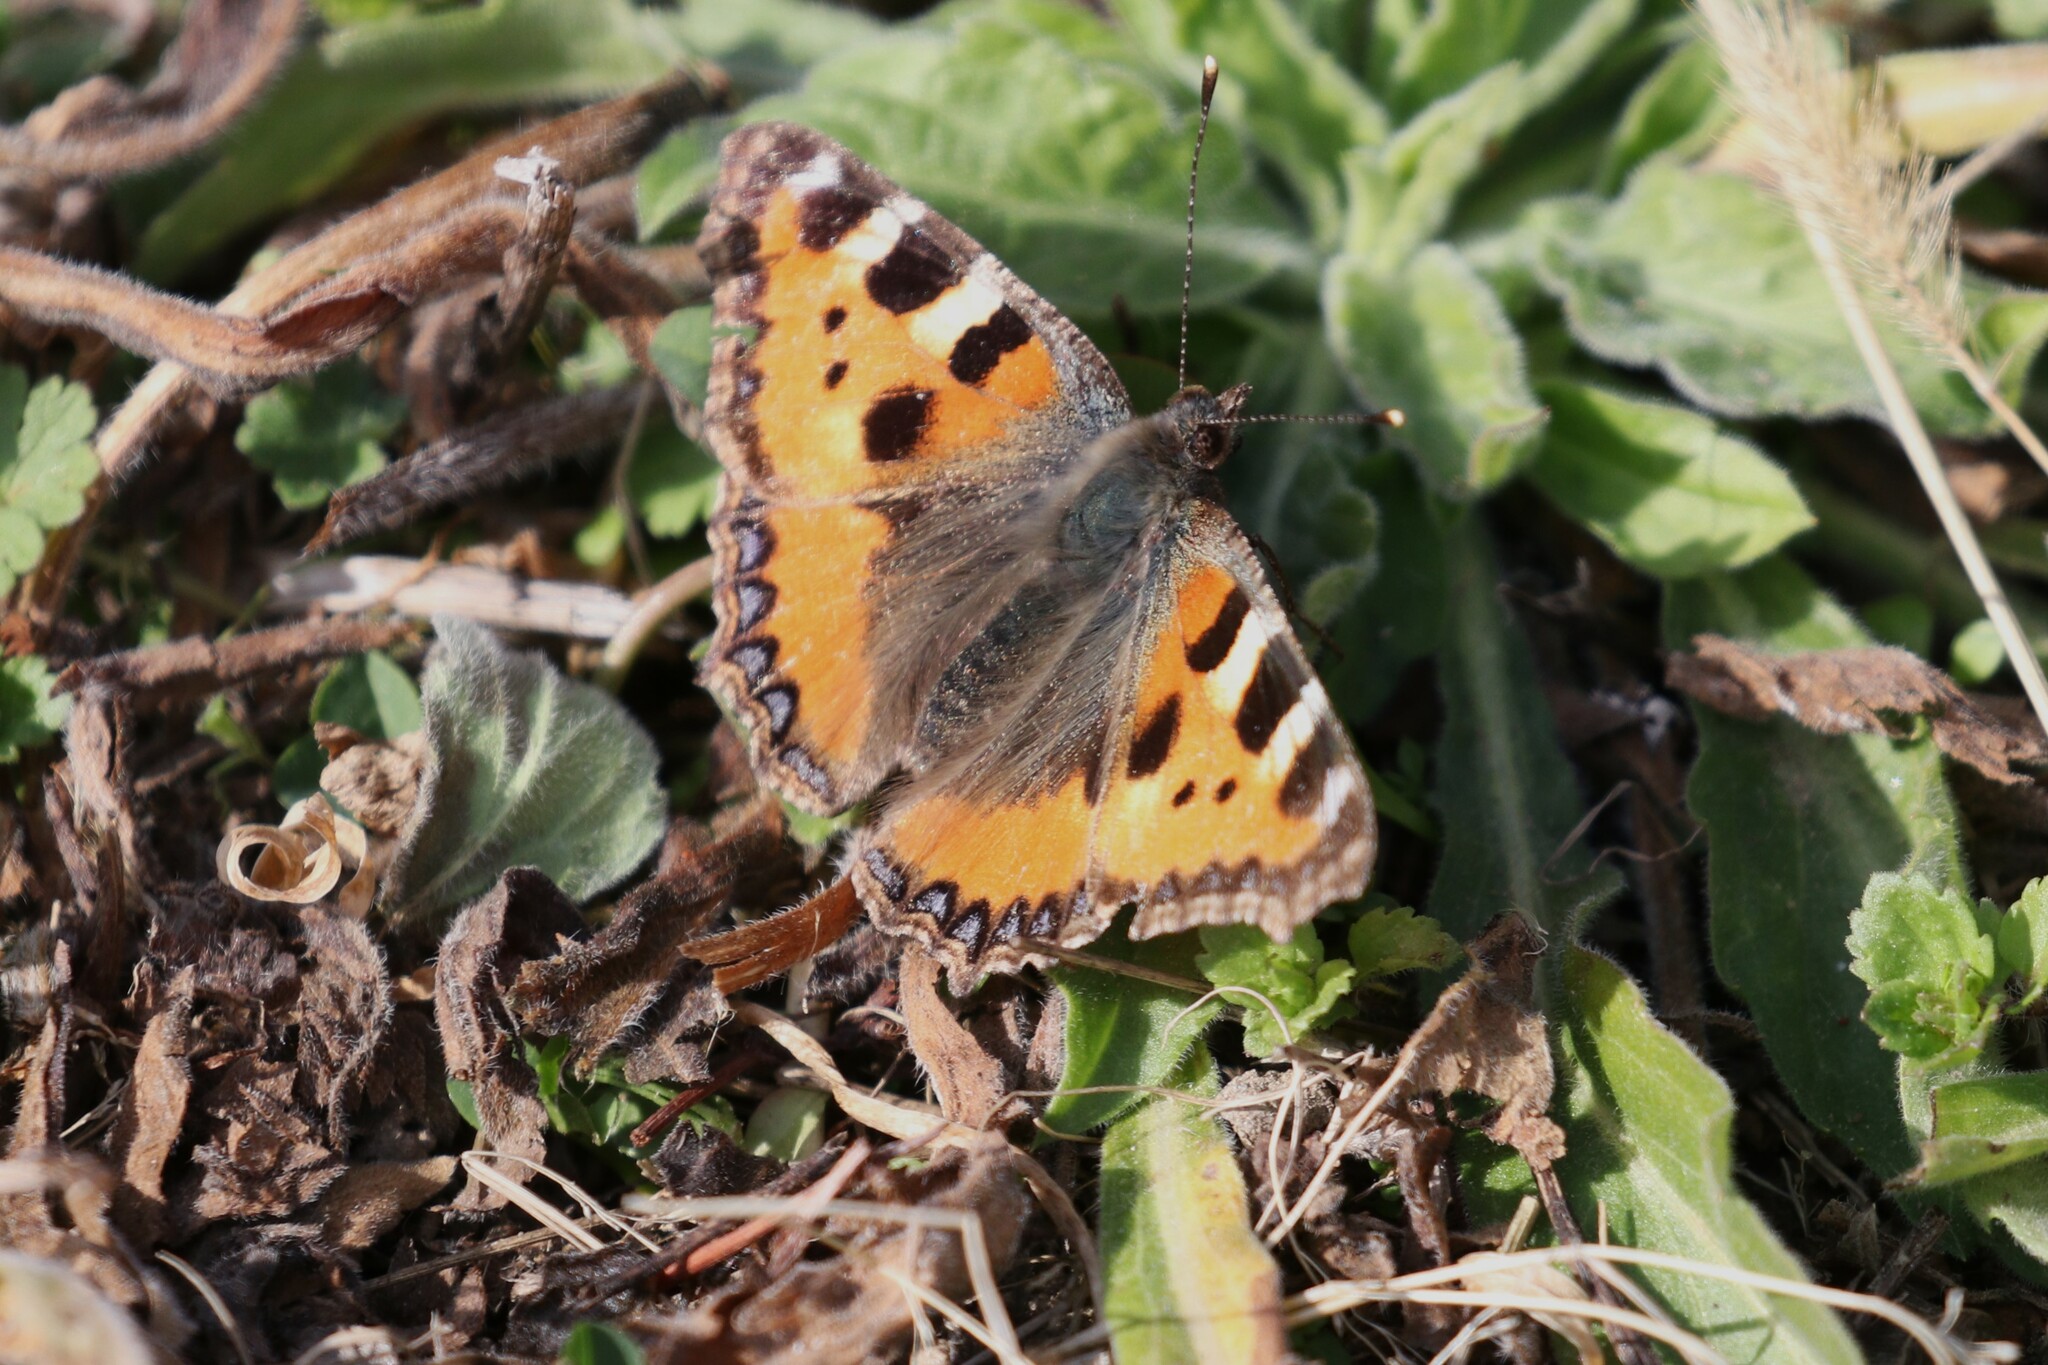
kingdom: Animalia
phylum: Arthropoda
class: Insecta
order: Lepidoptera
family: Nymphalidae
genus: Aglais
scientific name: Aglais urticae
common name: Small tortoiseshell
